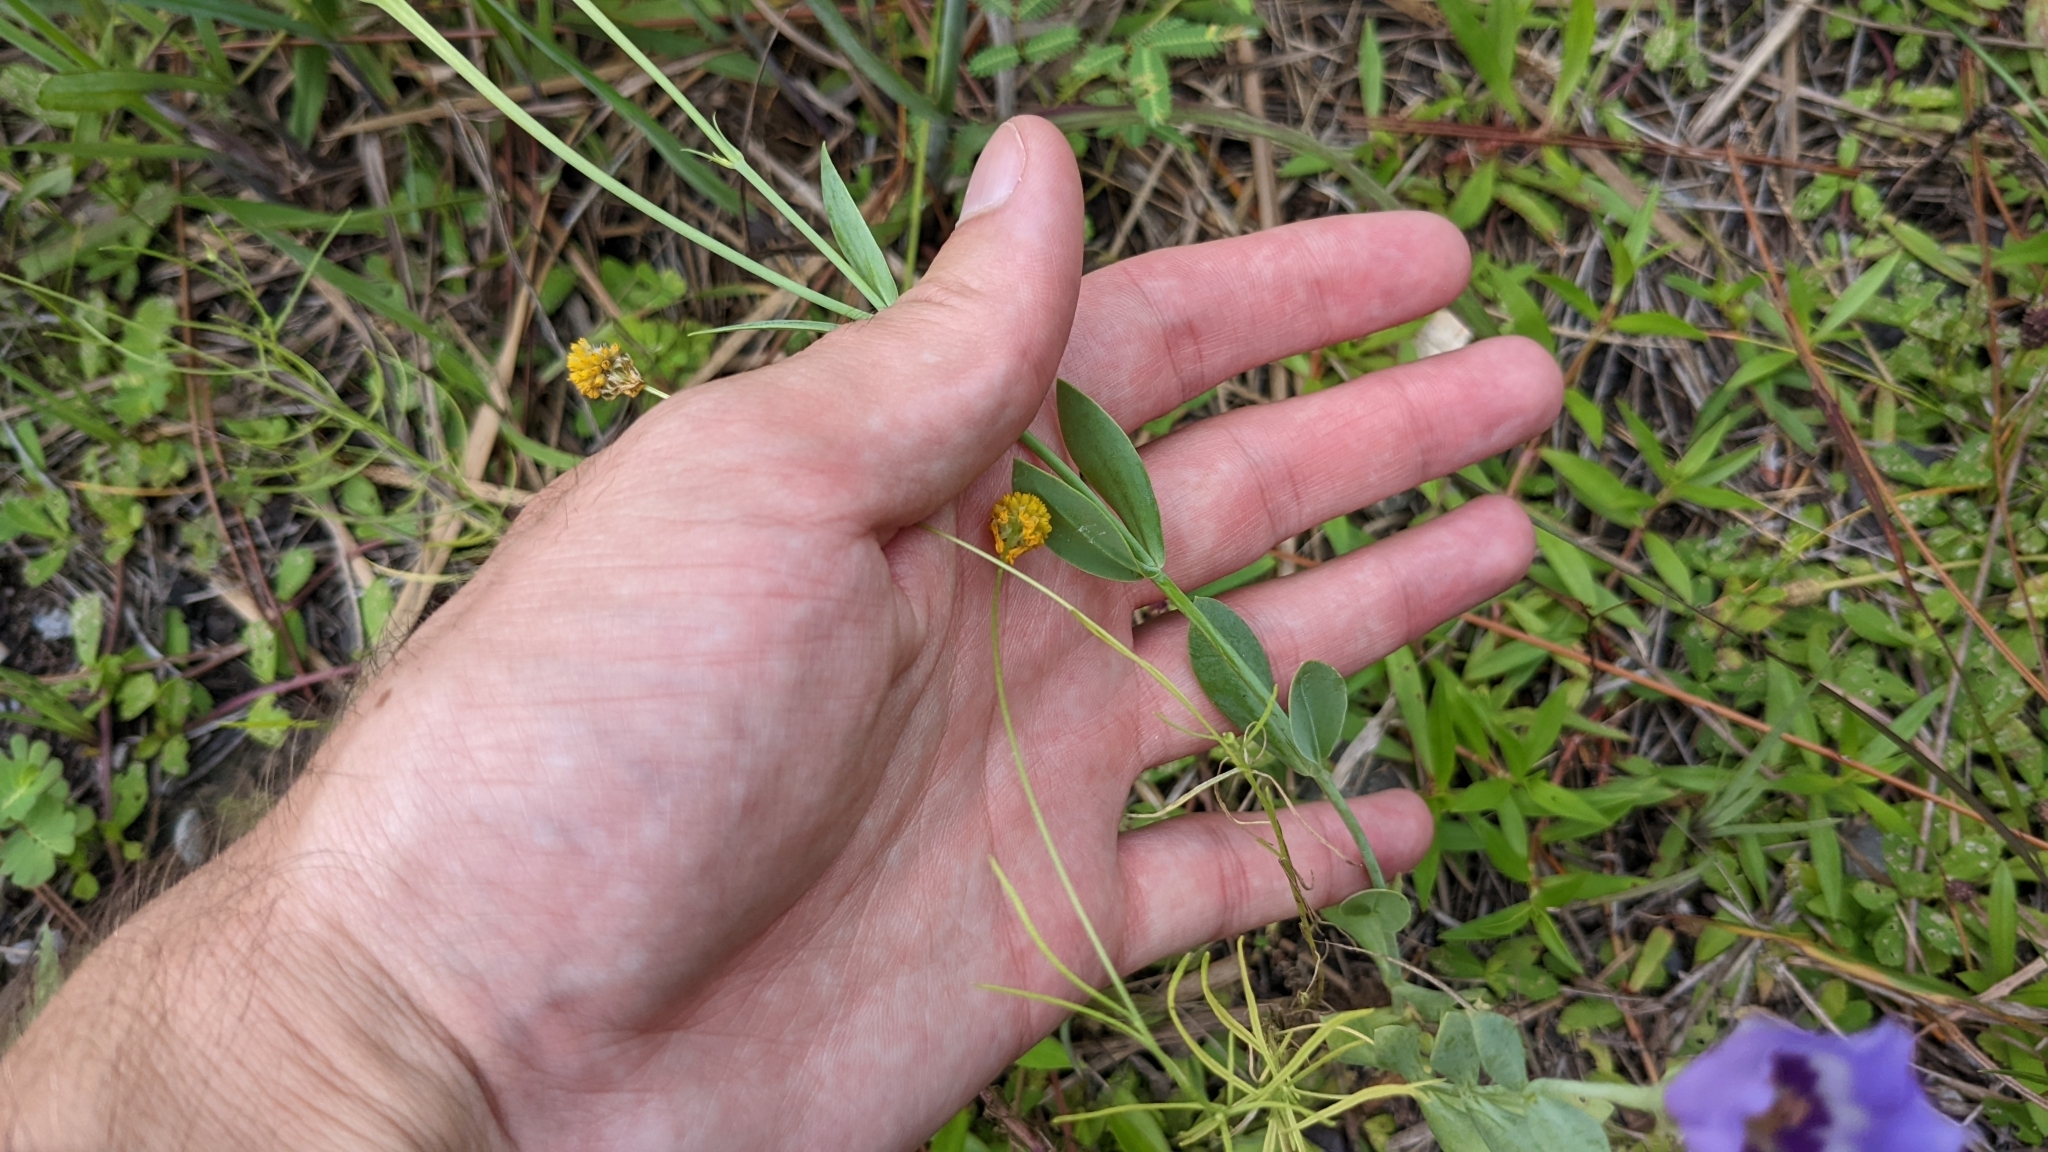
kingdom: Plantae
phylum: Tracheophyta
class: Magnoliopsida
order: Fabales
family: Polygalaceae
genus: Polygala
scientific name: Polygala lutea
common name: Orange milkwort
